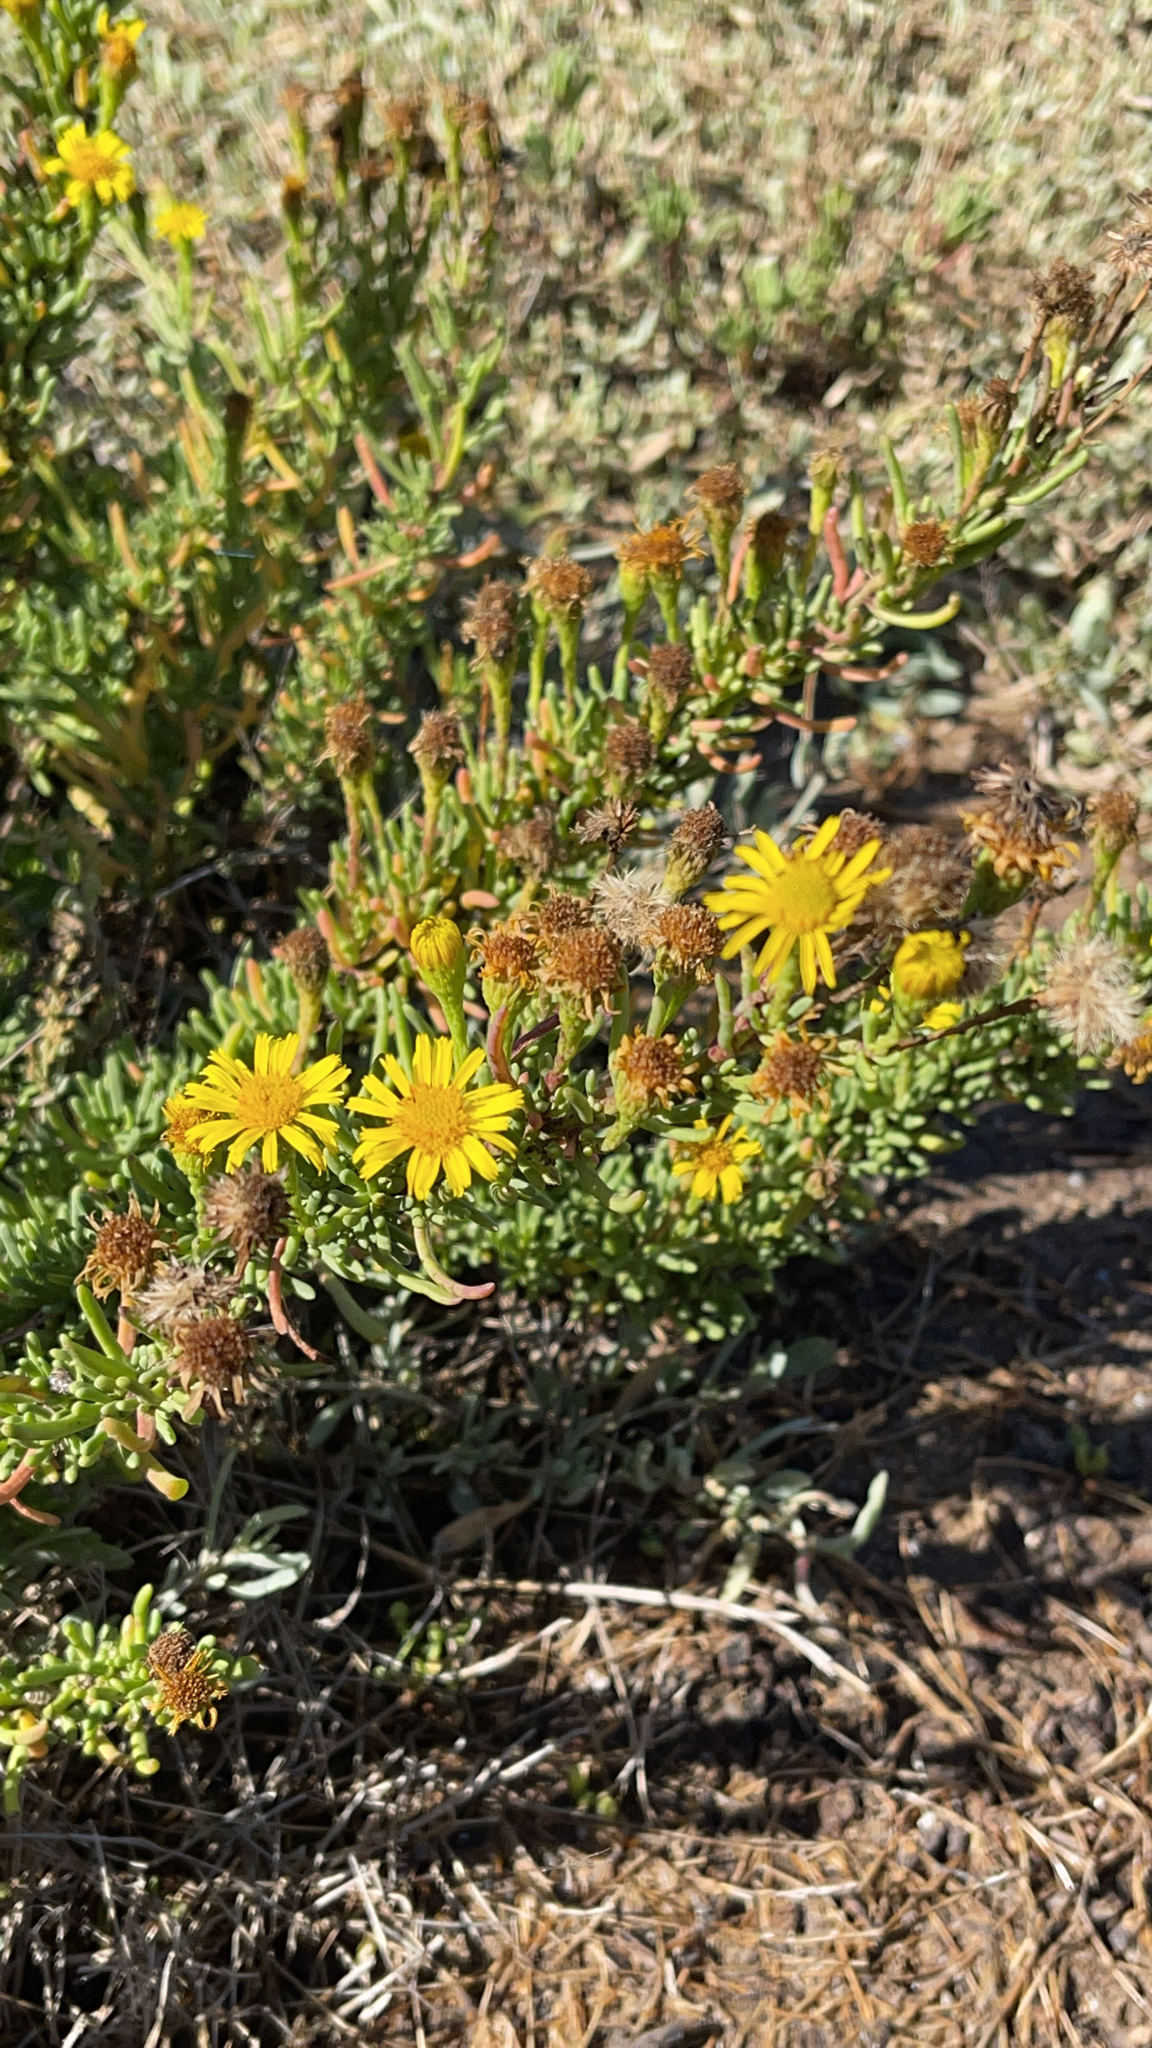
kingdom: Plantae
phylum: Tracheophyta
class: Magnoliopsida
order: Asterales
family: Asteraceae
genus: Limbarda
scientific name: Limbarda crithmoides
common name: Golden samphire
